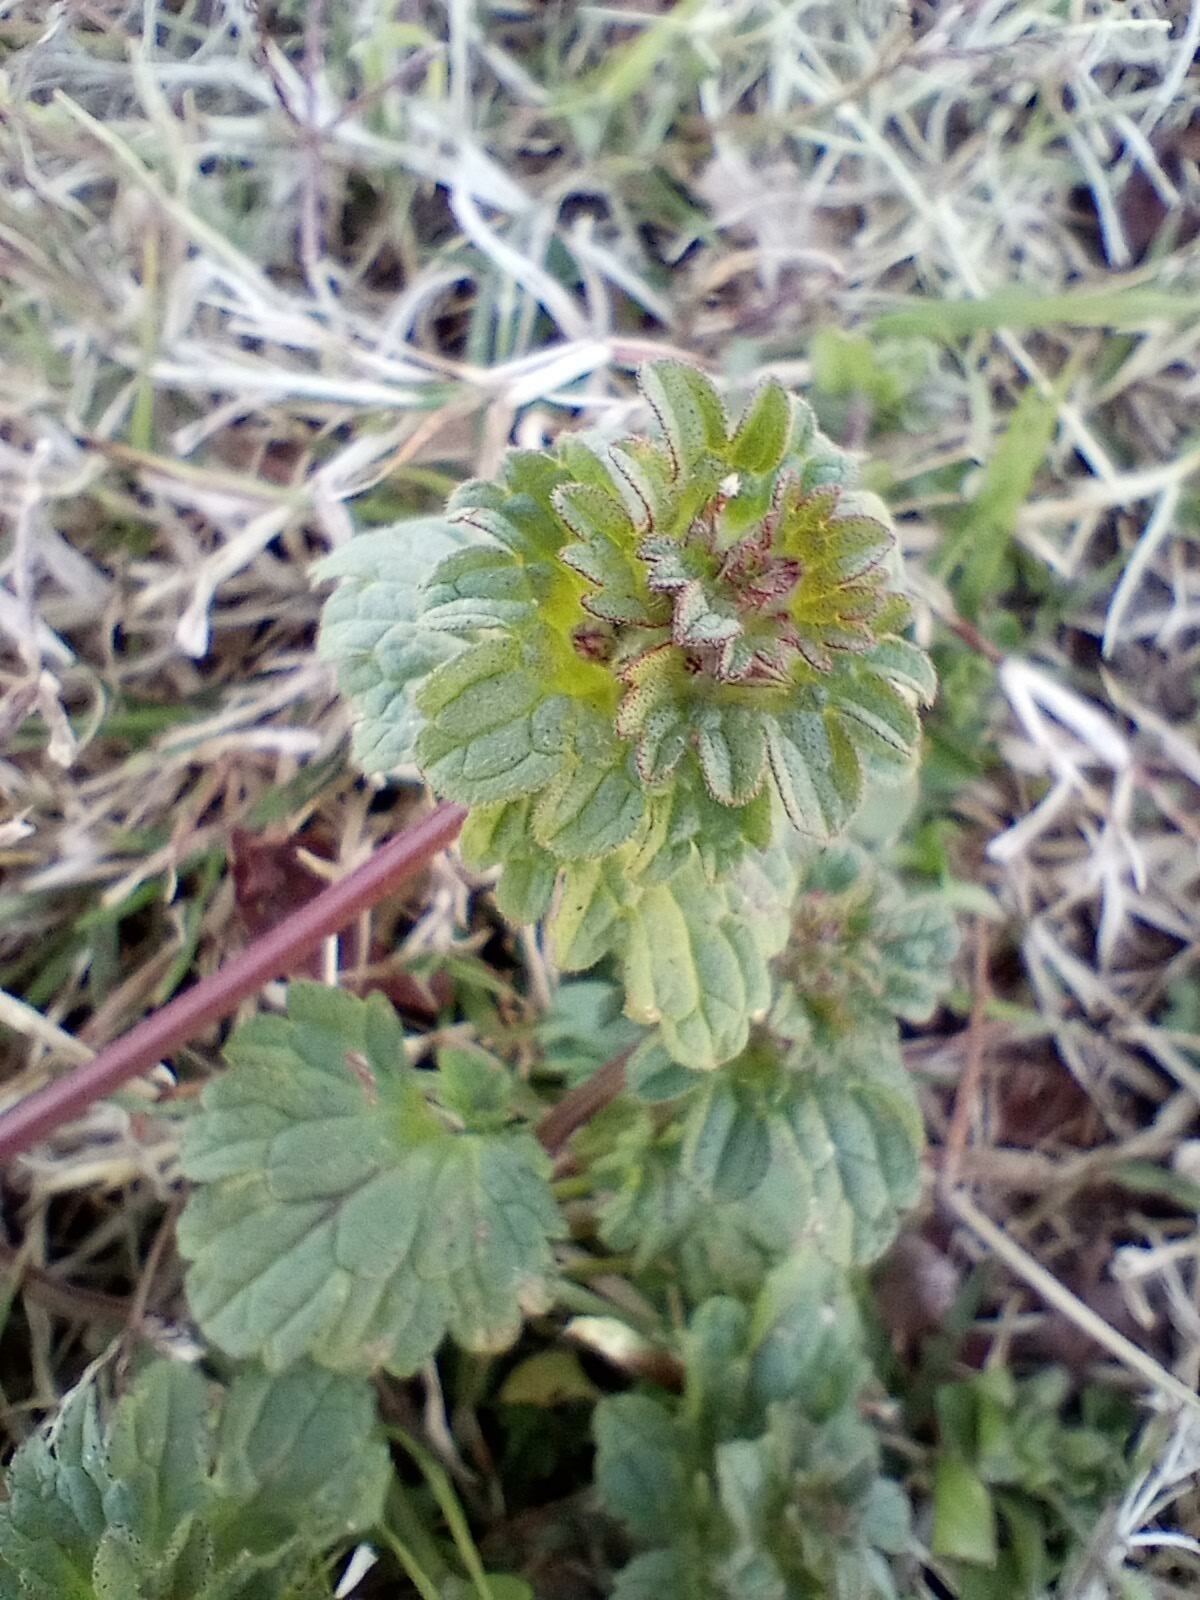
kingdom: Plantae
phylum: Tracheophyta
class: Magnoliopsida
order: Lamiales
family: Lamiaceae
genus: Lamium
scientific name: Lamium amplexicaule
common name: Henbit dead-nettle
